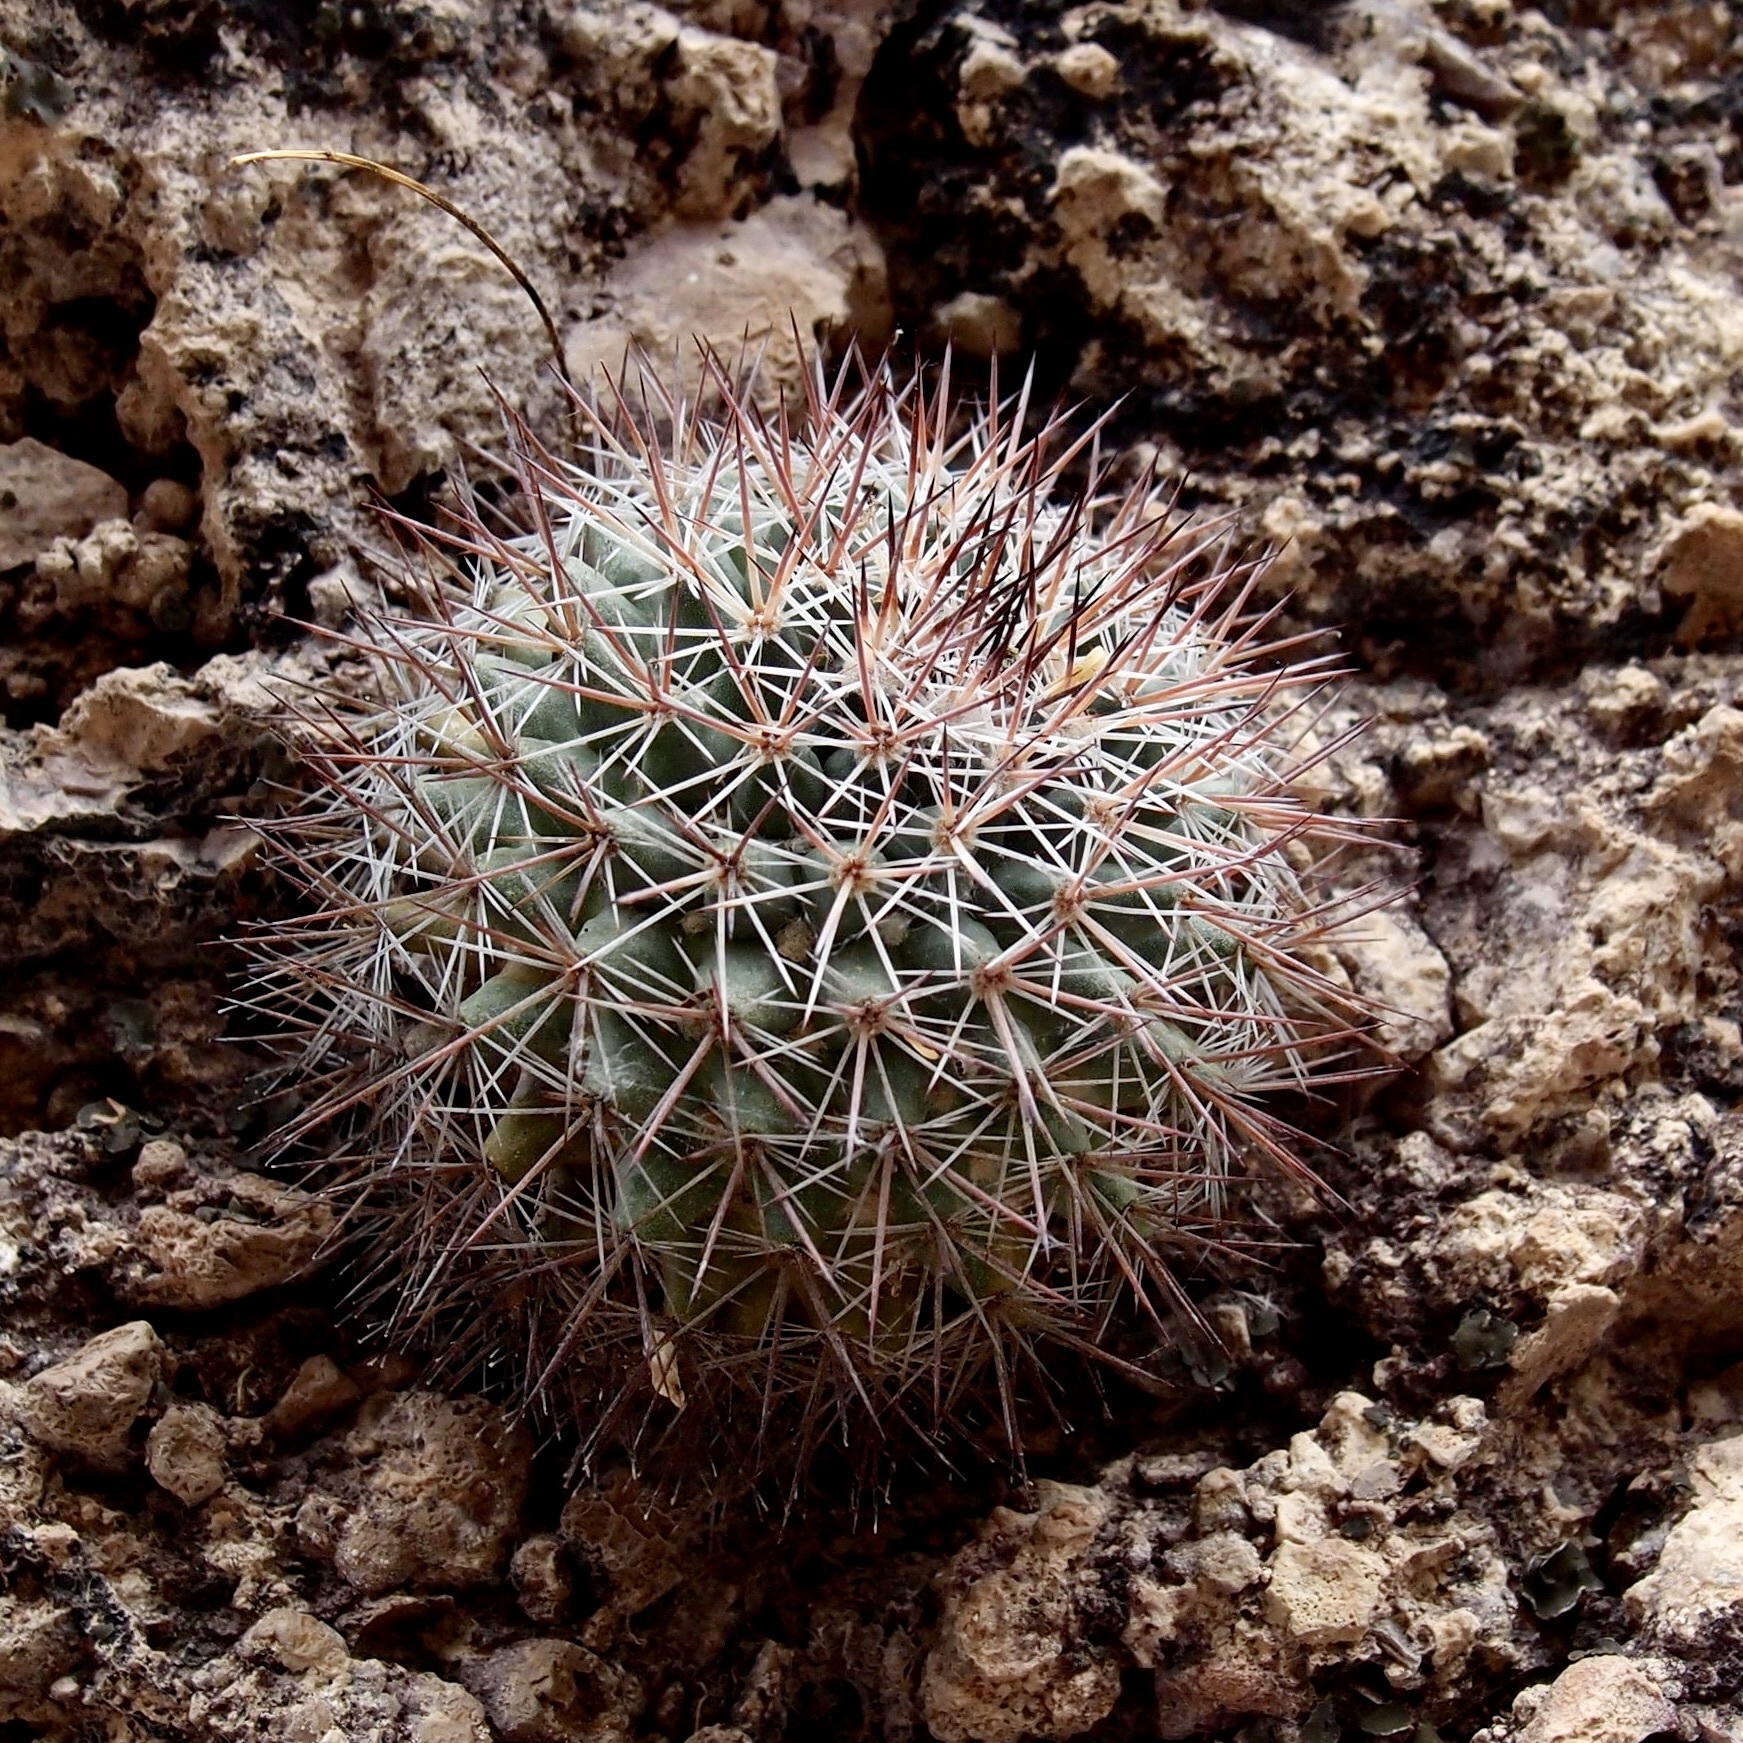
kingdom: Plantae
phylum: Tracheophyta
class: Magnoliopsida
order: Caryophyllales
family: Cactaceae
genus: Mammillaria
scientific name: Mammillaria johnstonii
